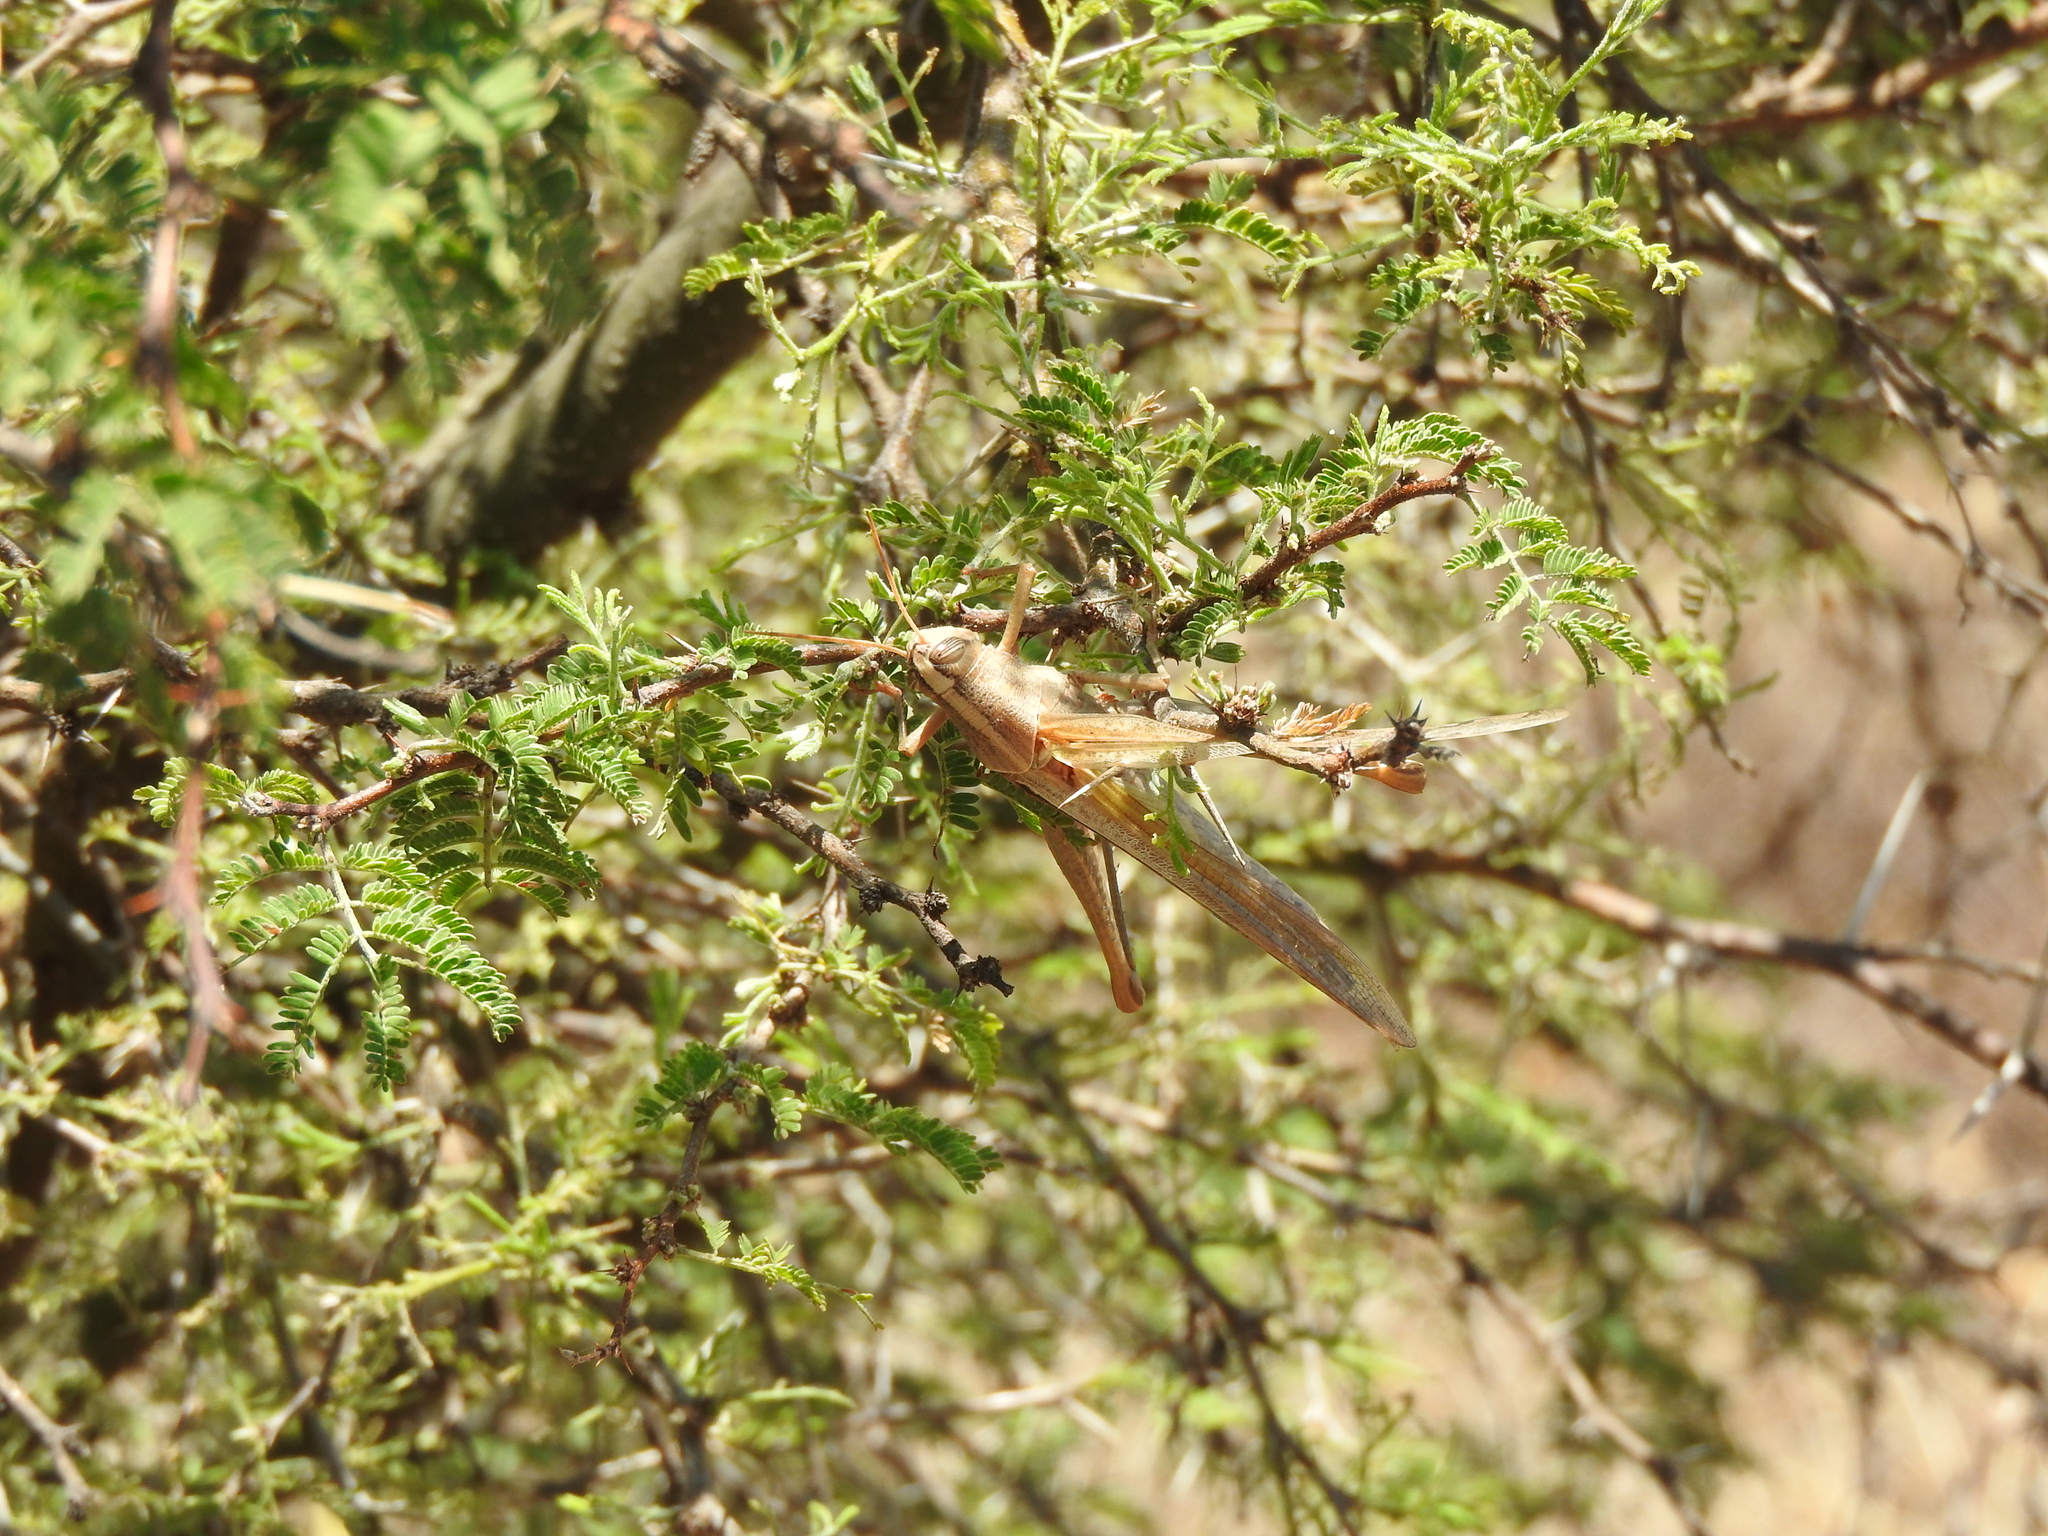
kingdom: Plantae
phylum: Tracheophyta
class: Magnoliopsida
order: Fabales
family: Fabaceae
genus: Vachellia
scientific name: Vachellia farnesiana
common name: Sweet acacia
